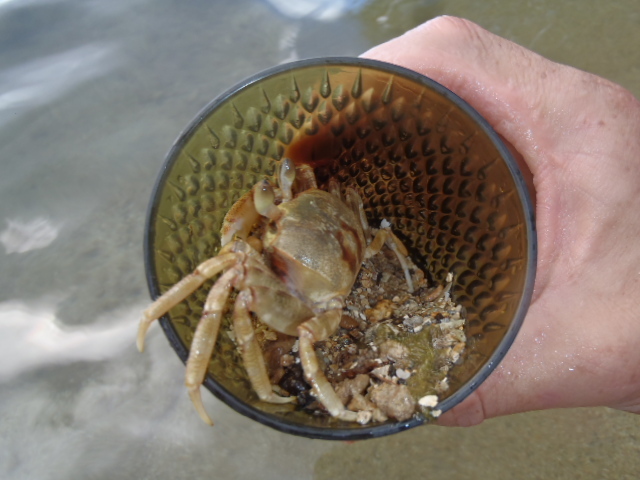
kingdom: Animalia
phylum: Arthropoda
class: Malacostraca
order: Decapoda
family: Ocypodidae
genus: Ocypode
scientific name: Ocypode ceratophthalmus
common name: Indo-pacific ghost crab
